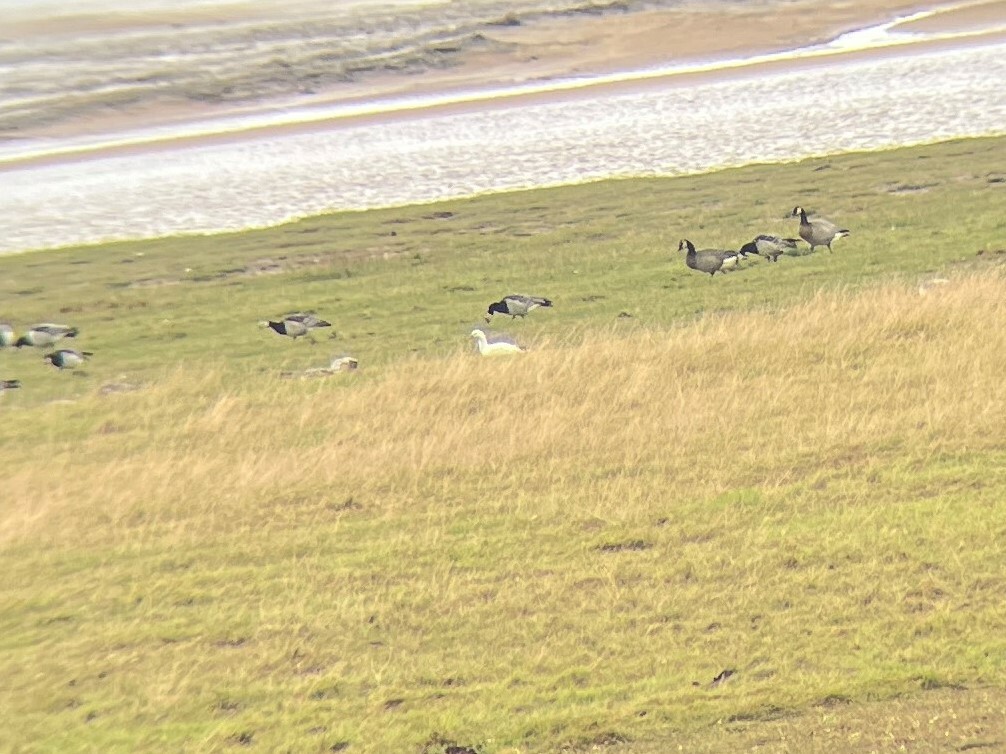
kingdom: Animalia
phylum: Chordata
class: Aves
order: Anseriformes
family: Anatidae
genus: Anser
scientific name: Anser rossii
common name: Ross's goose
